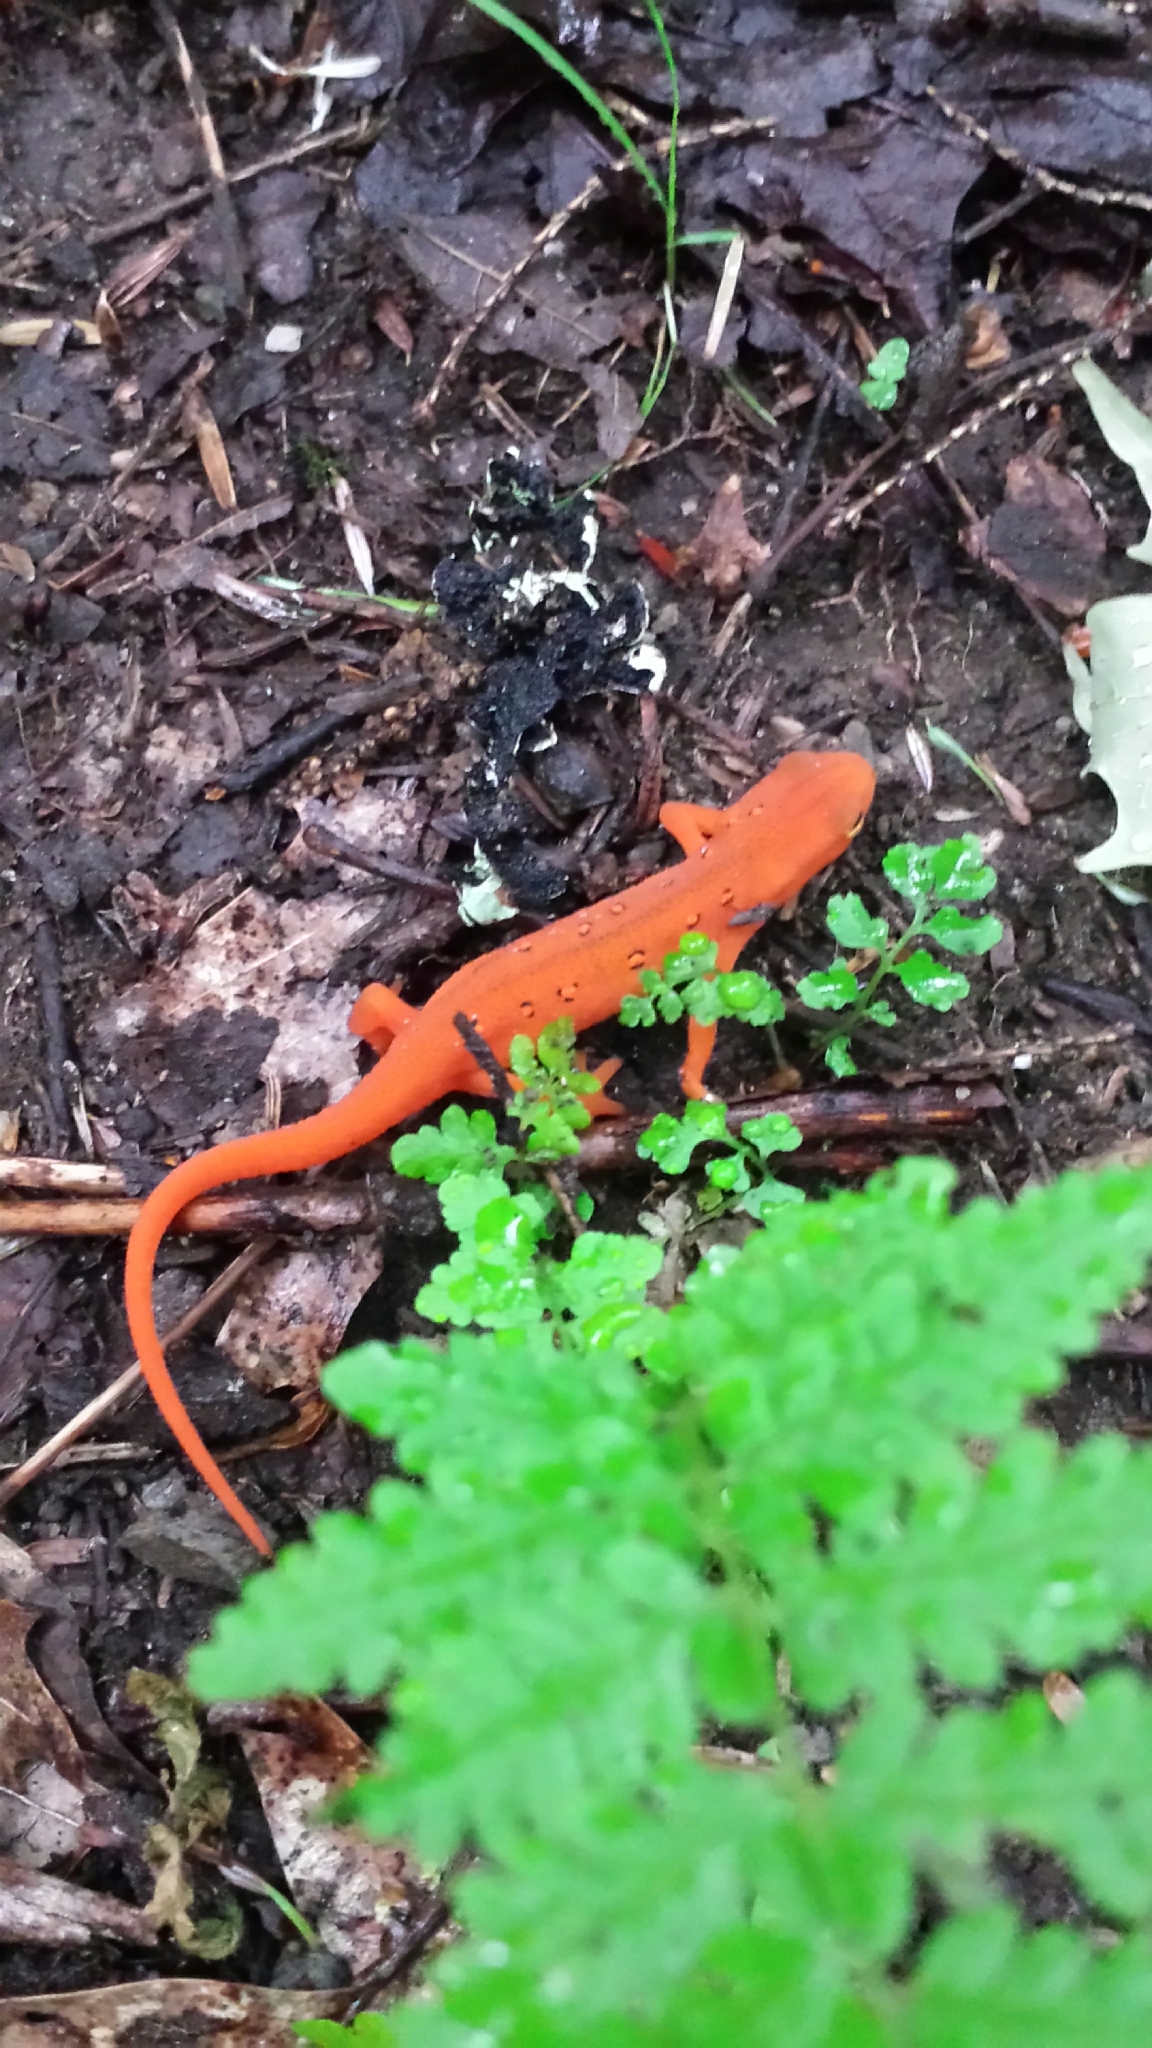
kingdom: Animalia
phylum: Chordata
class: Amphibia
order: Caudata
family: Salamandridae
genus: Notophthalmus
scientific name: Notophthalmus viridescens
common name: Eastern newt
